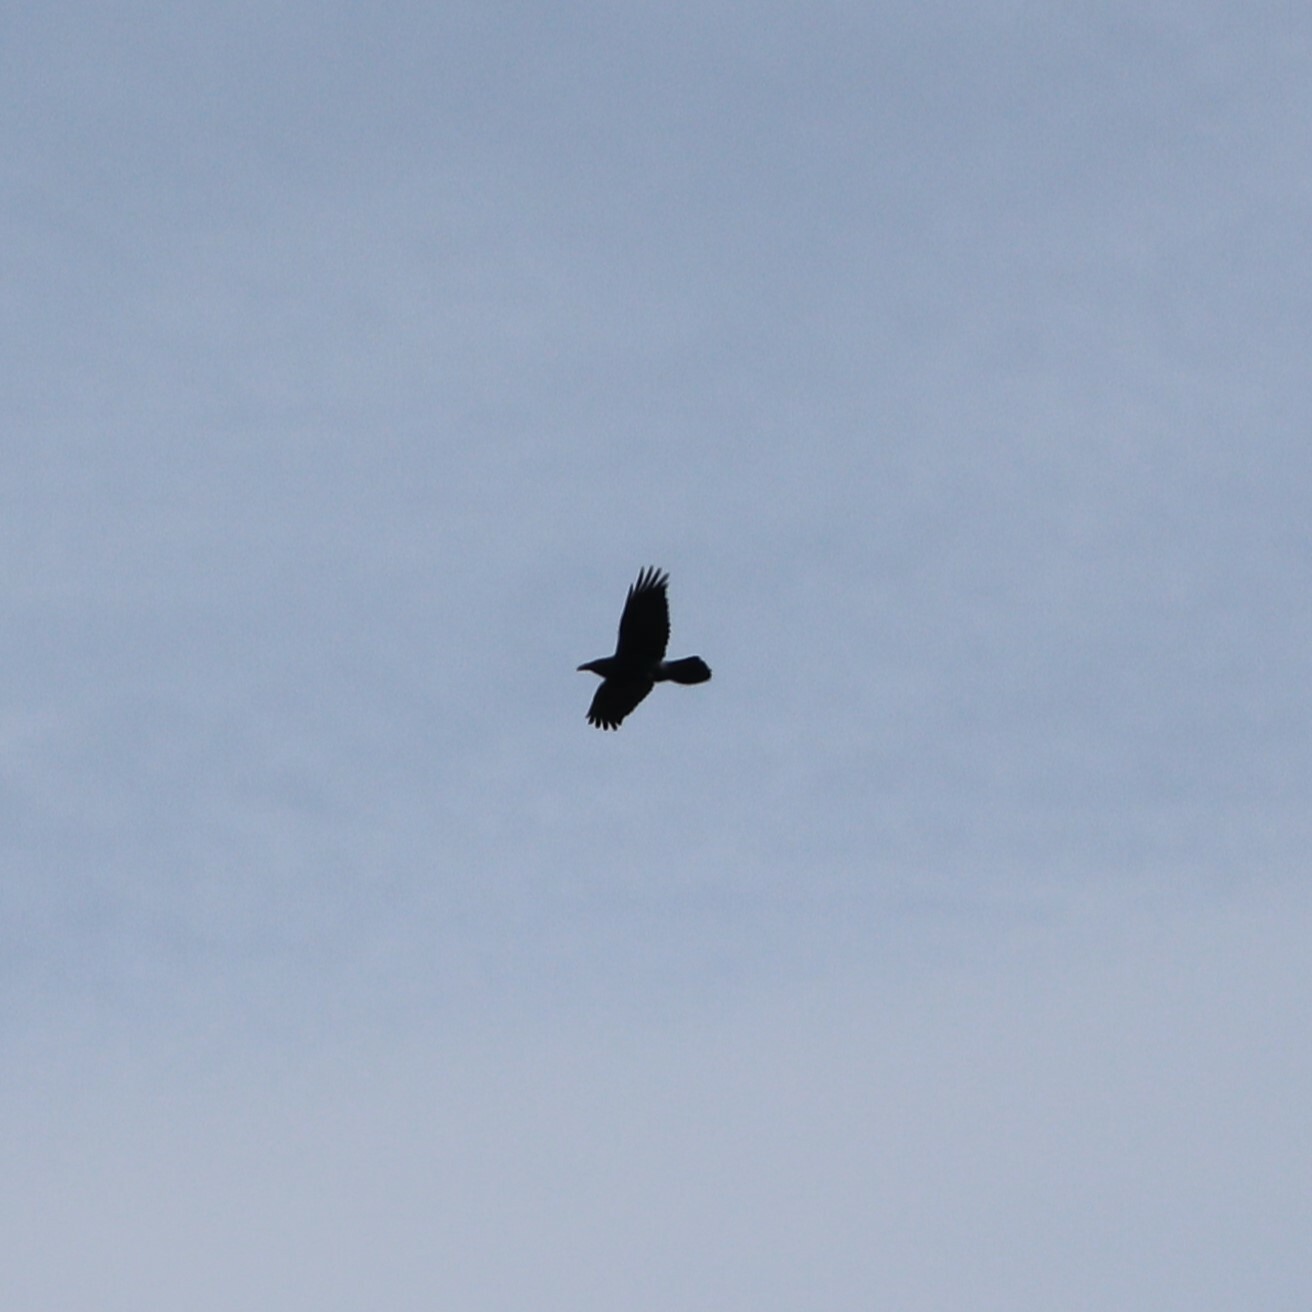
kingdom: Animalia
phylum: Chordata
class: Aves
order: Passeriformes
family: Corvidae
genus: Corvus
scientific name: Corvus corax
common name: Common raven
